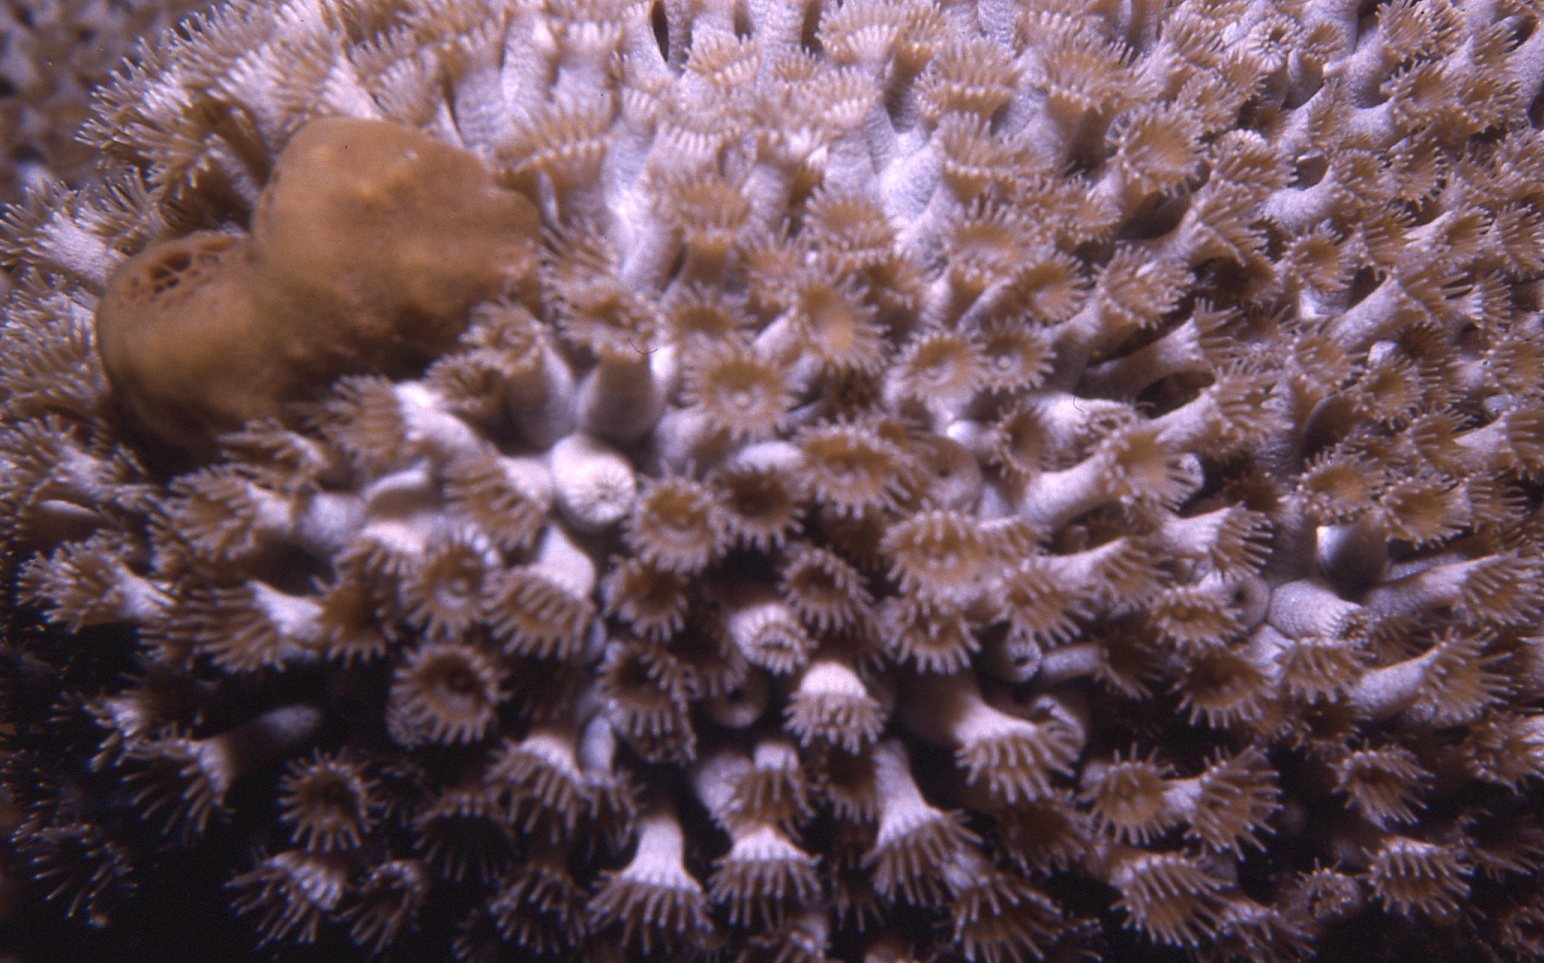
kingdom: Animalia
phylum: Cnidaria
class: Anthozoa
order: Zoantharia
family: Epizoanthidae
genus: Epizoanthus
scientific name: Epizoanthus sabulosus
